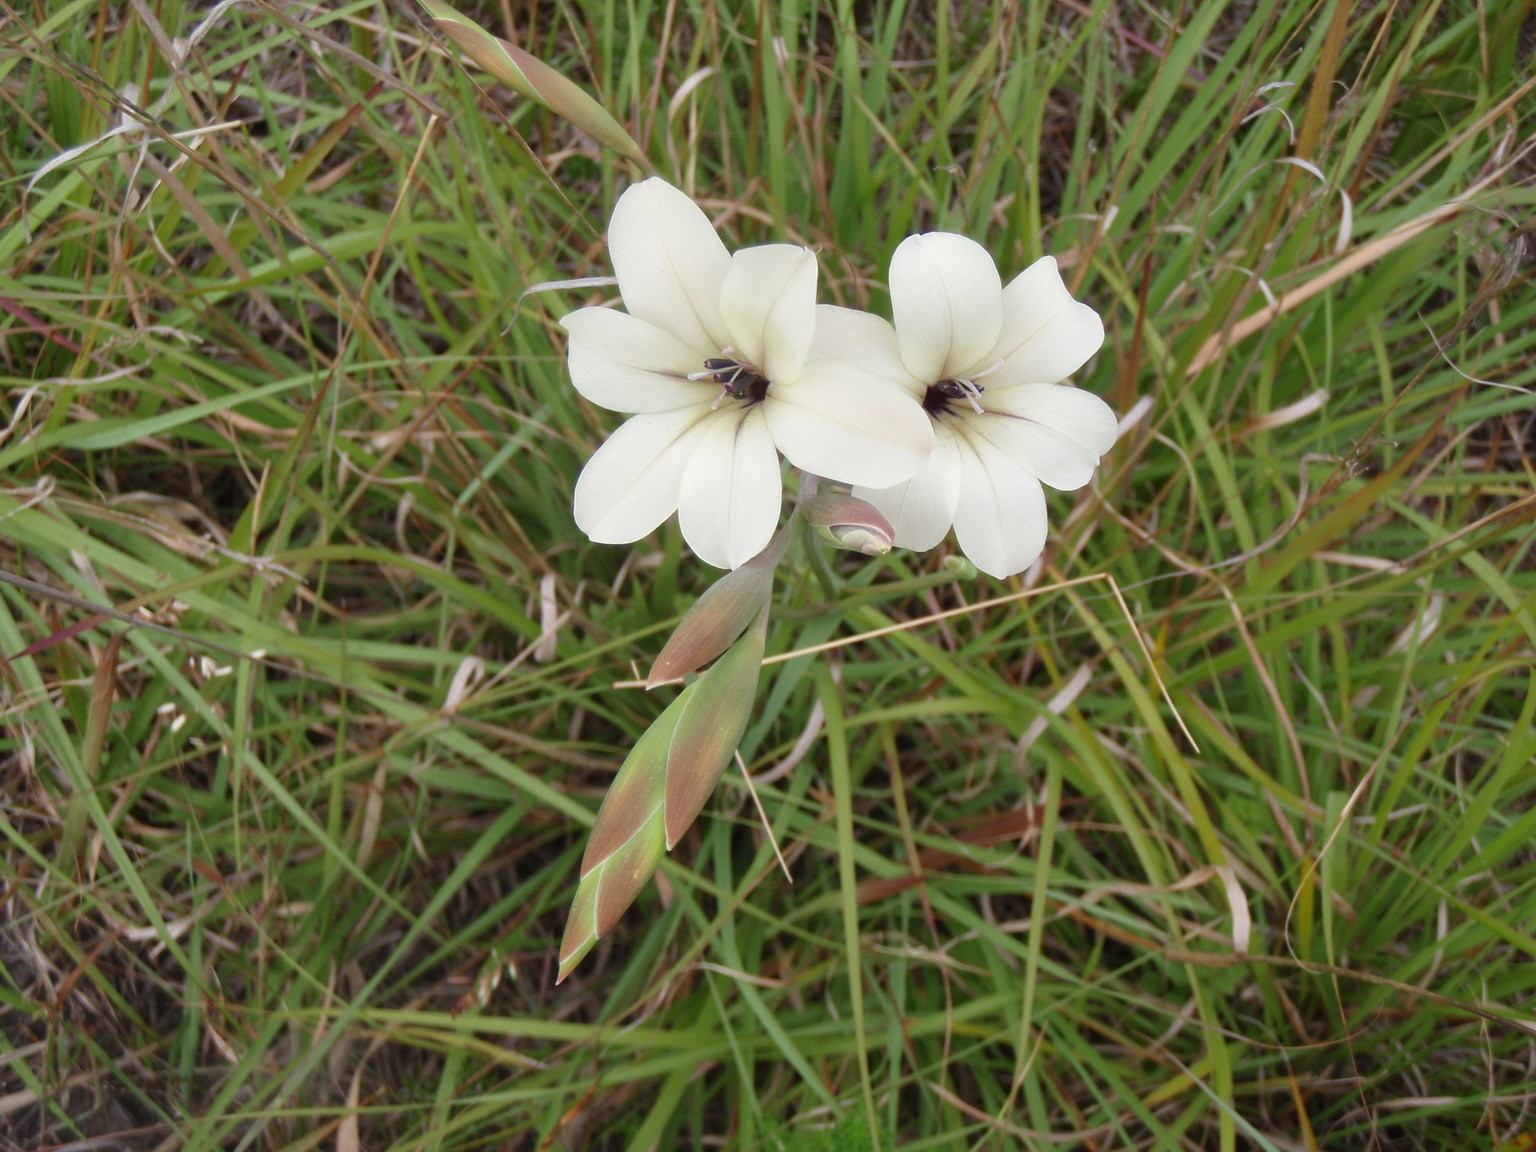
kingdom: Plantae
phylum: Tracheophyta
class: Liliopsida
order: Asparagales
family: Iridaceae
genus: Gladiolus
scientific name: Gladiolus floribundus
